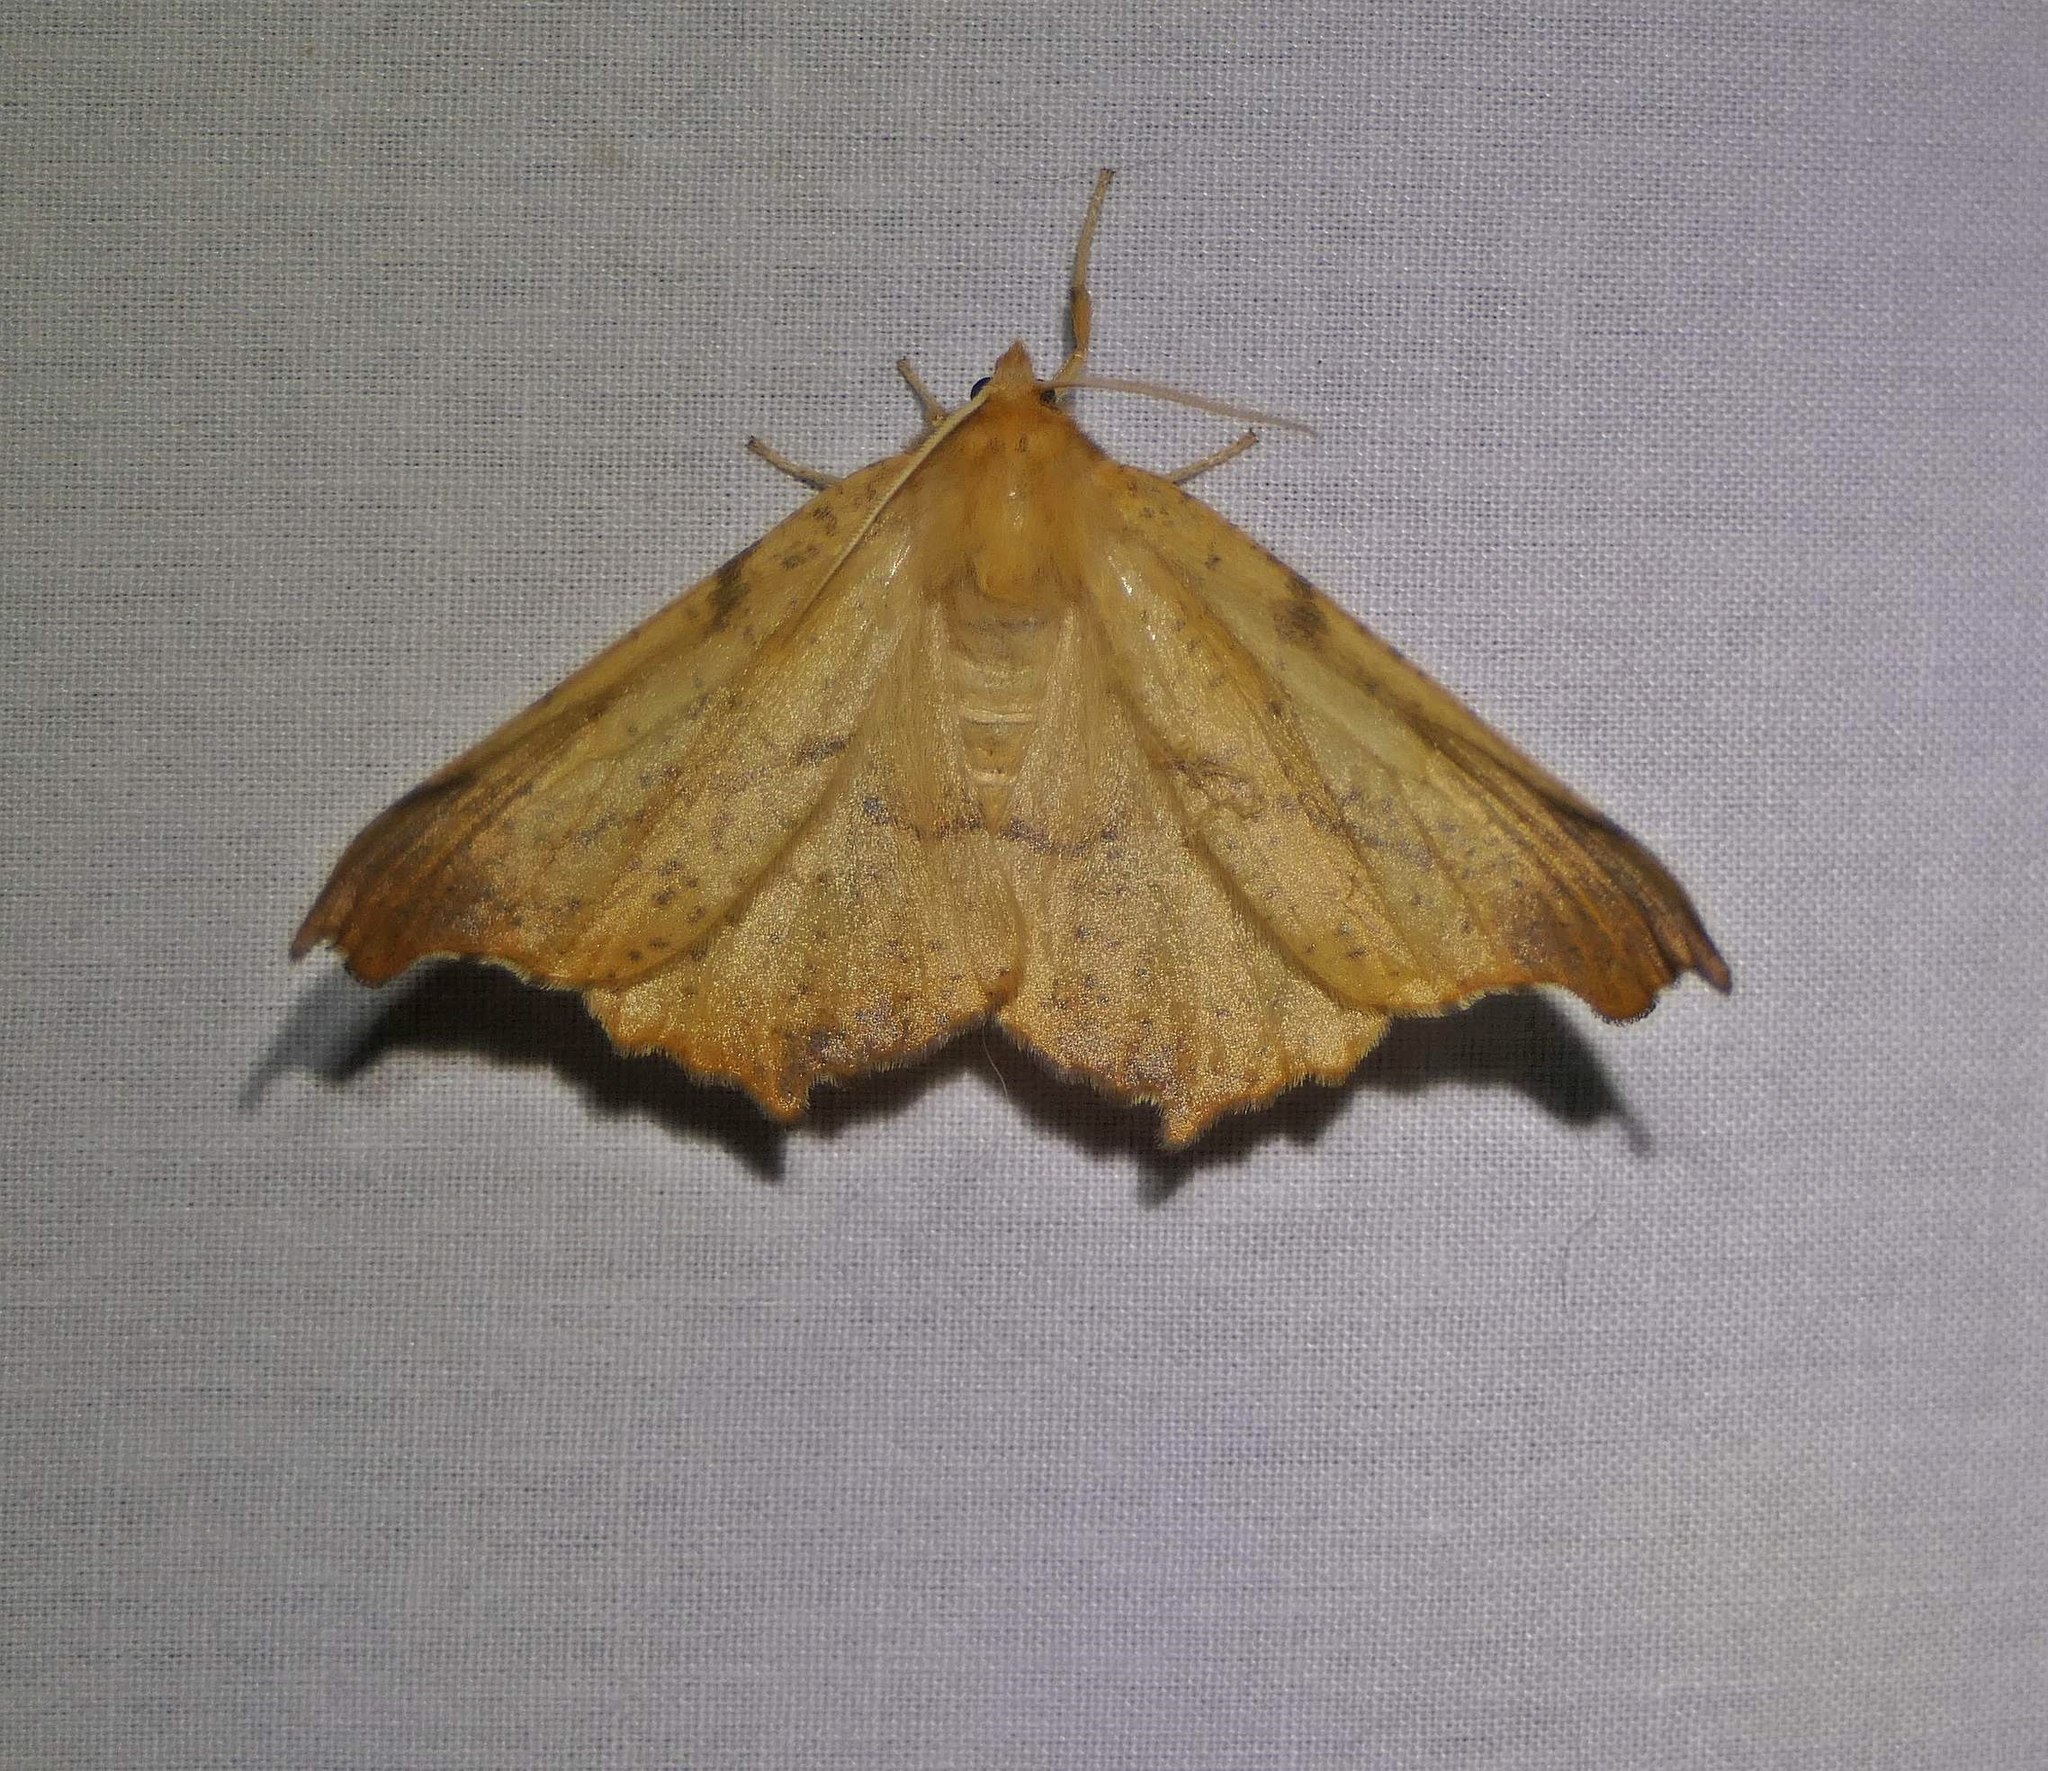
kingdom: Animalia
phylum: Arthropoda
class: Insecta
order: Lepidoptera
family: Geometridae
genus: Ennomos
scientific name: Ennomos magnaria
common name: Maple spanworm
